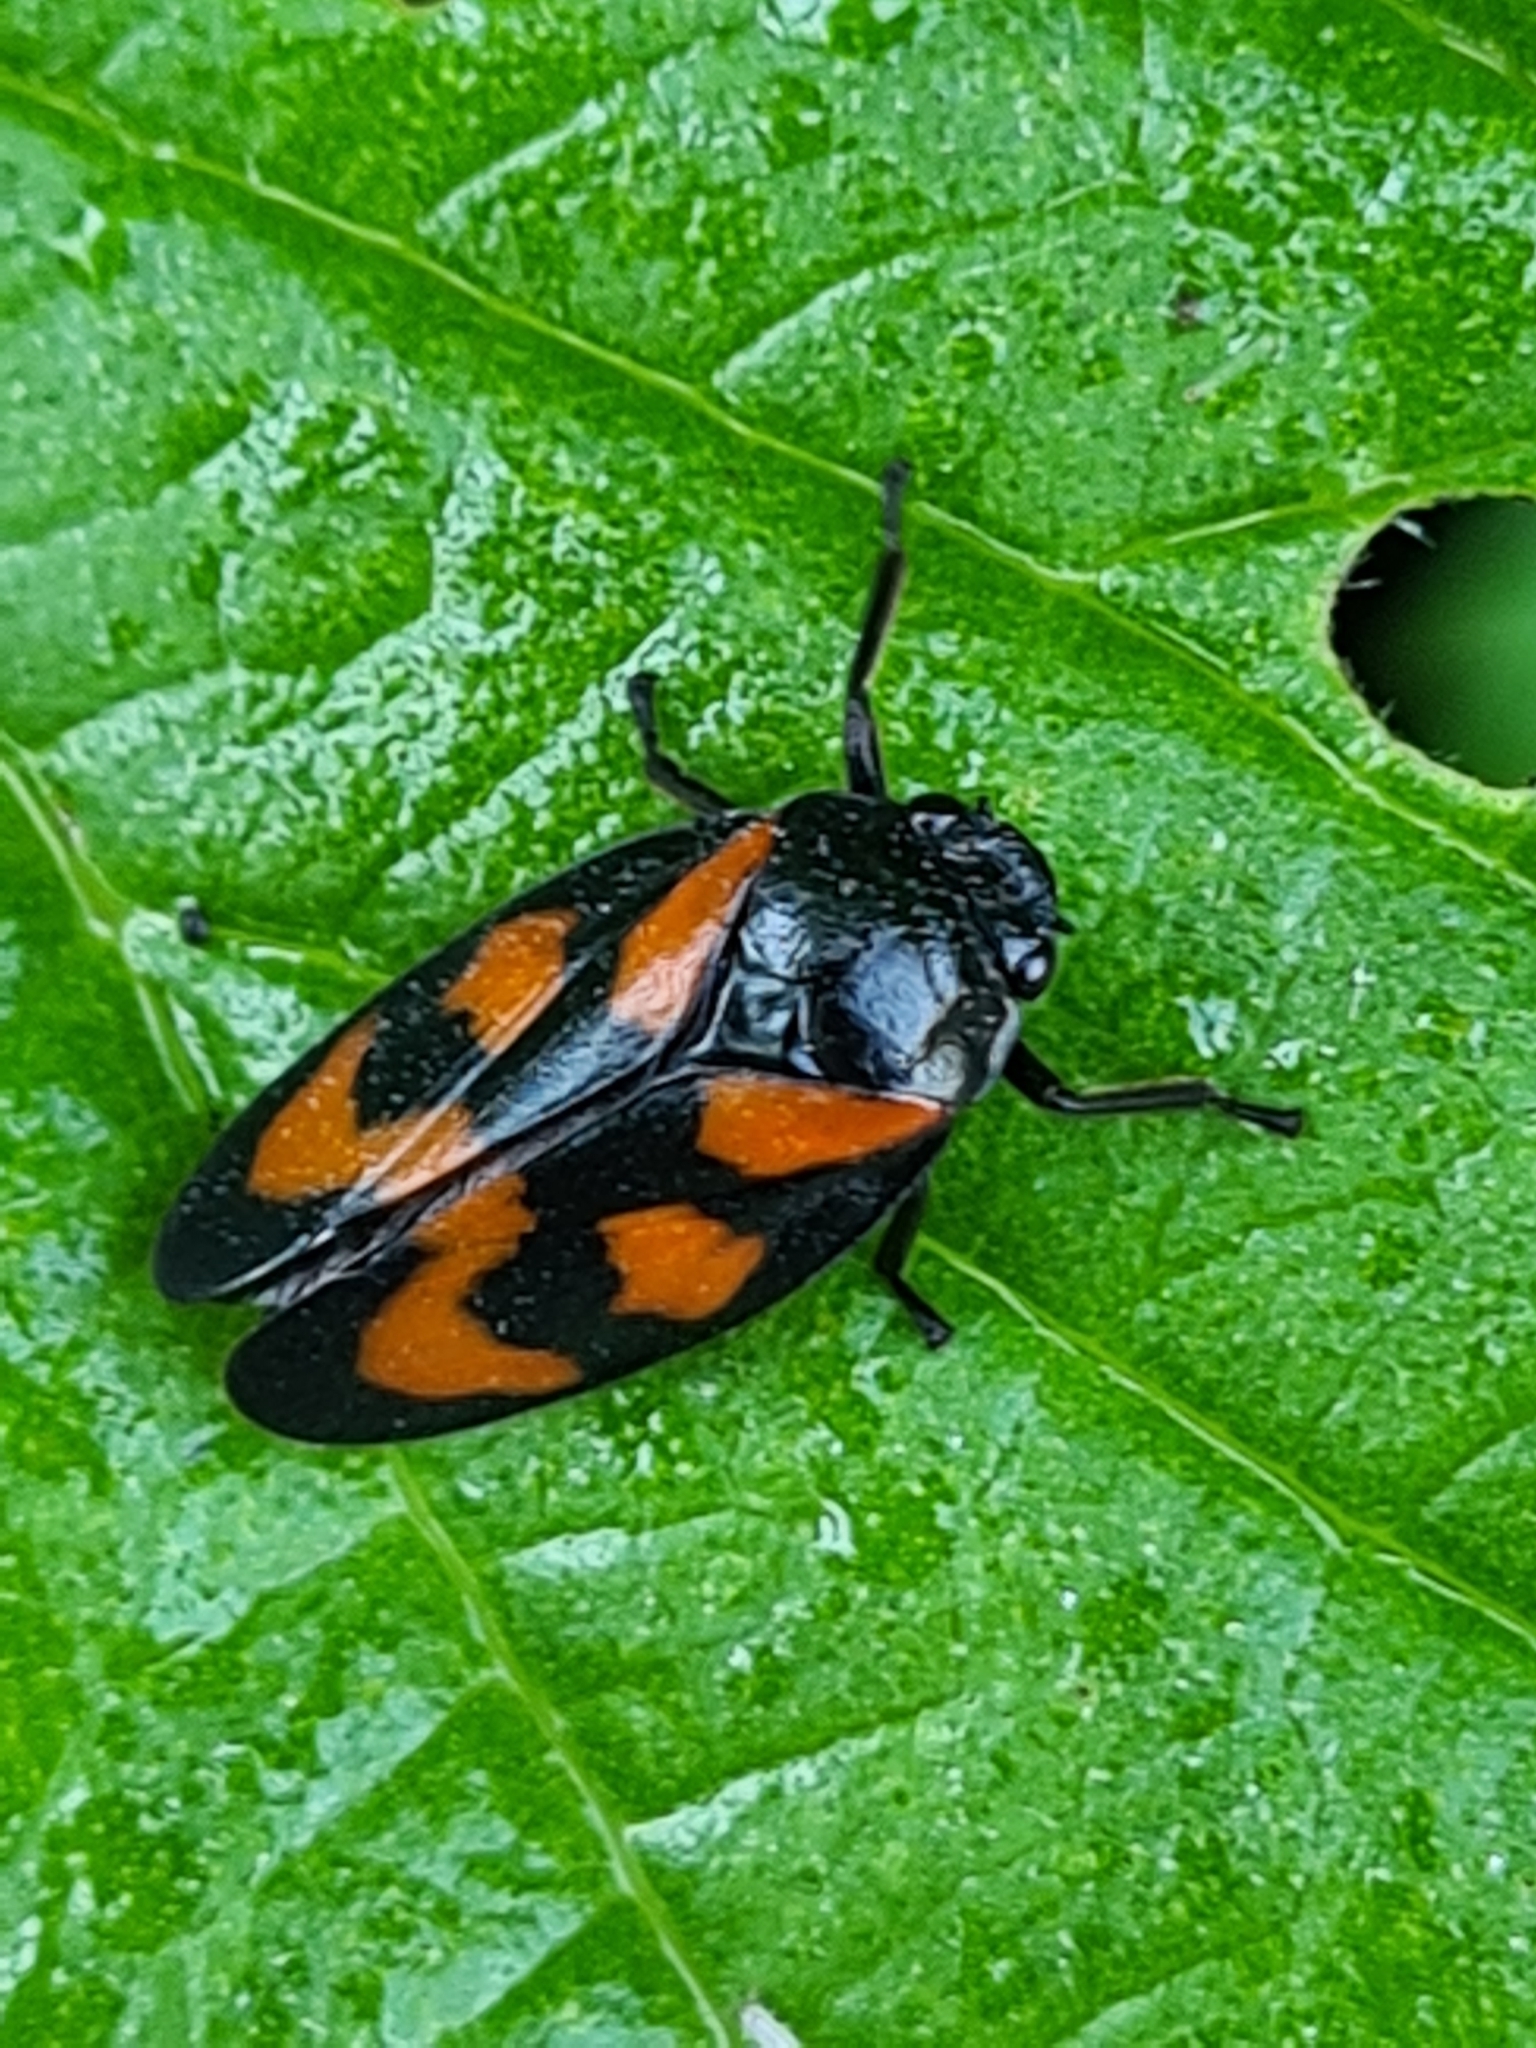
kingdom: Animalia
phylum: Arthropoda
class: Insecta
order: Hemiptera
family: Cercopidae
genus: Cercopis
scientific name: Cercopis vulnerata
